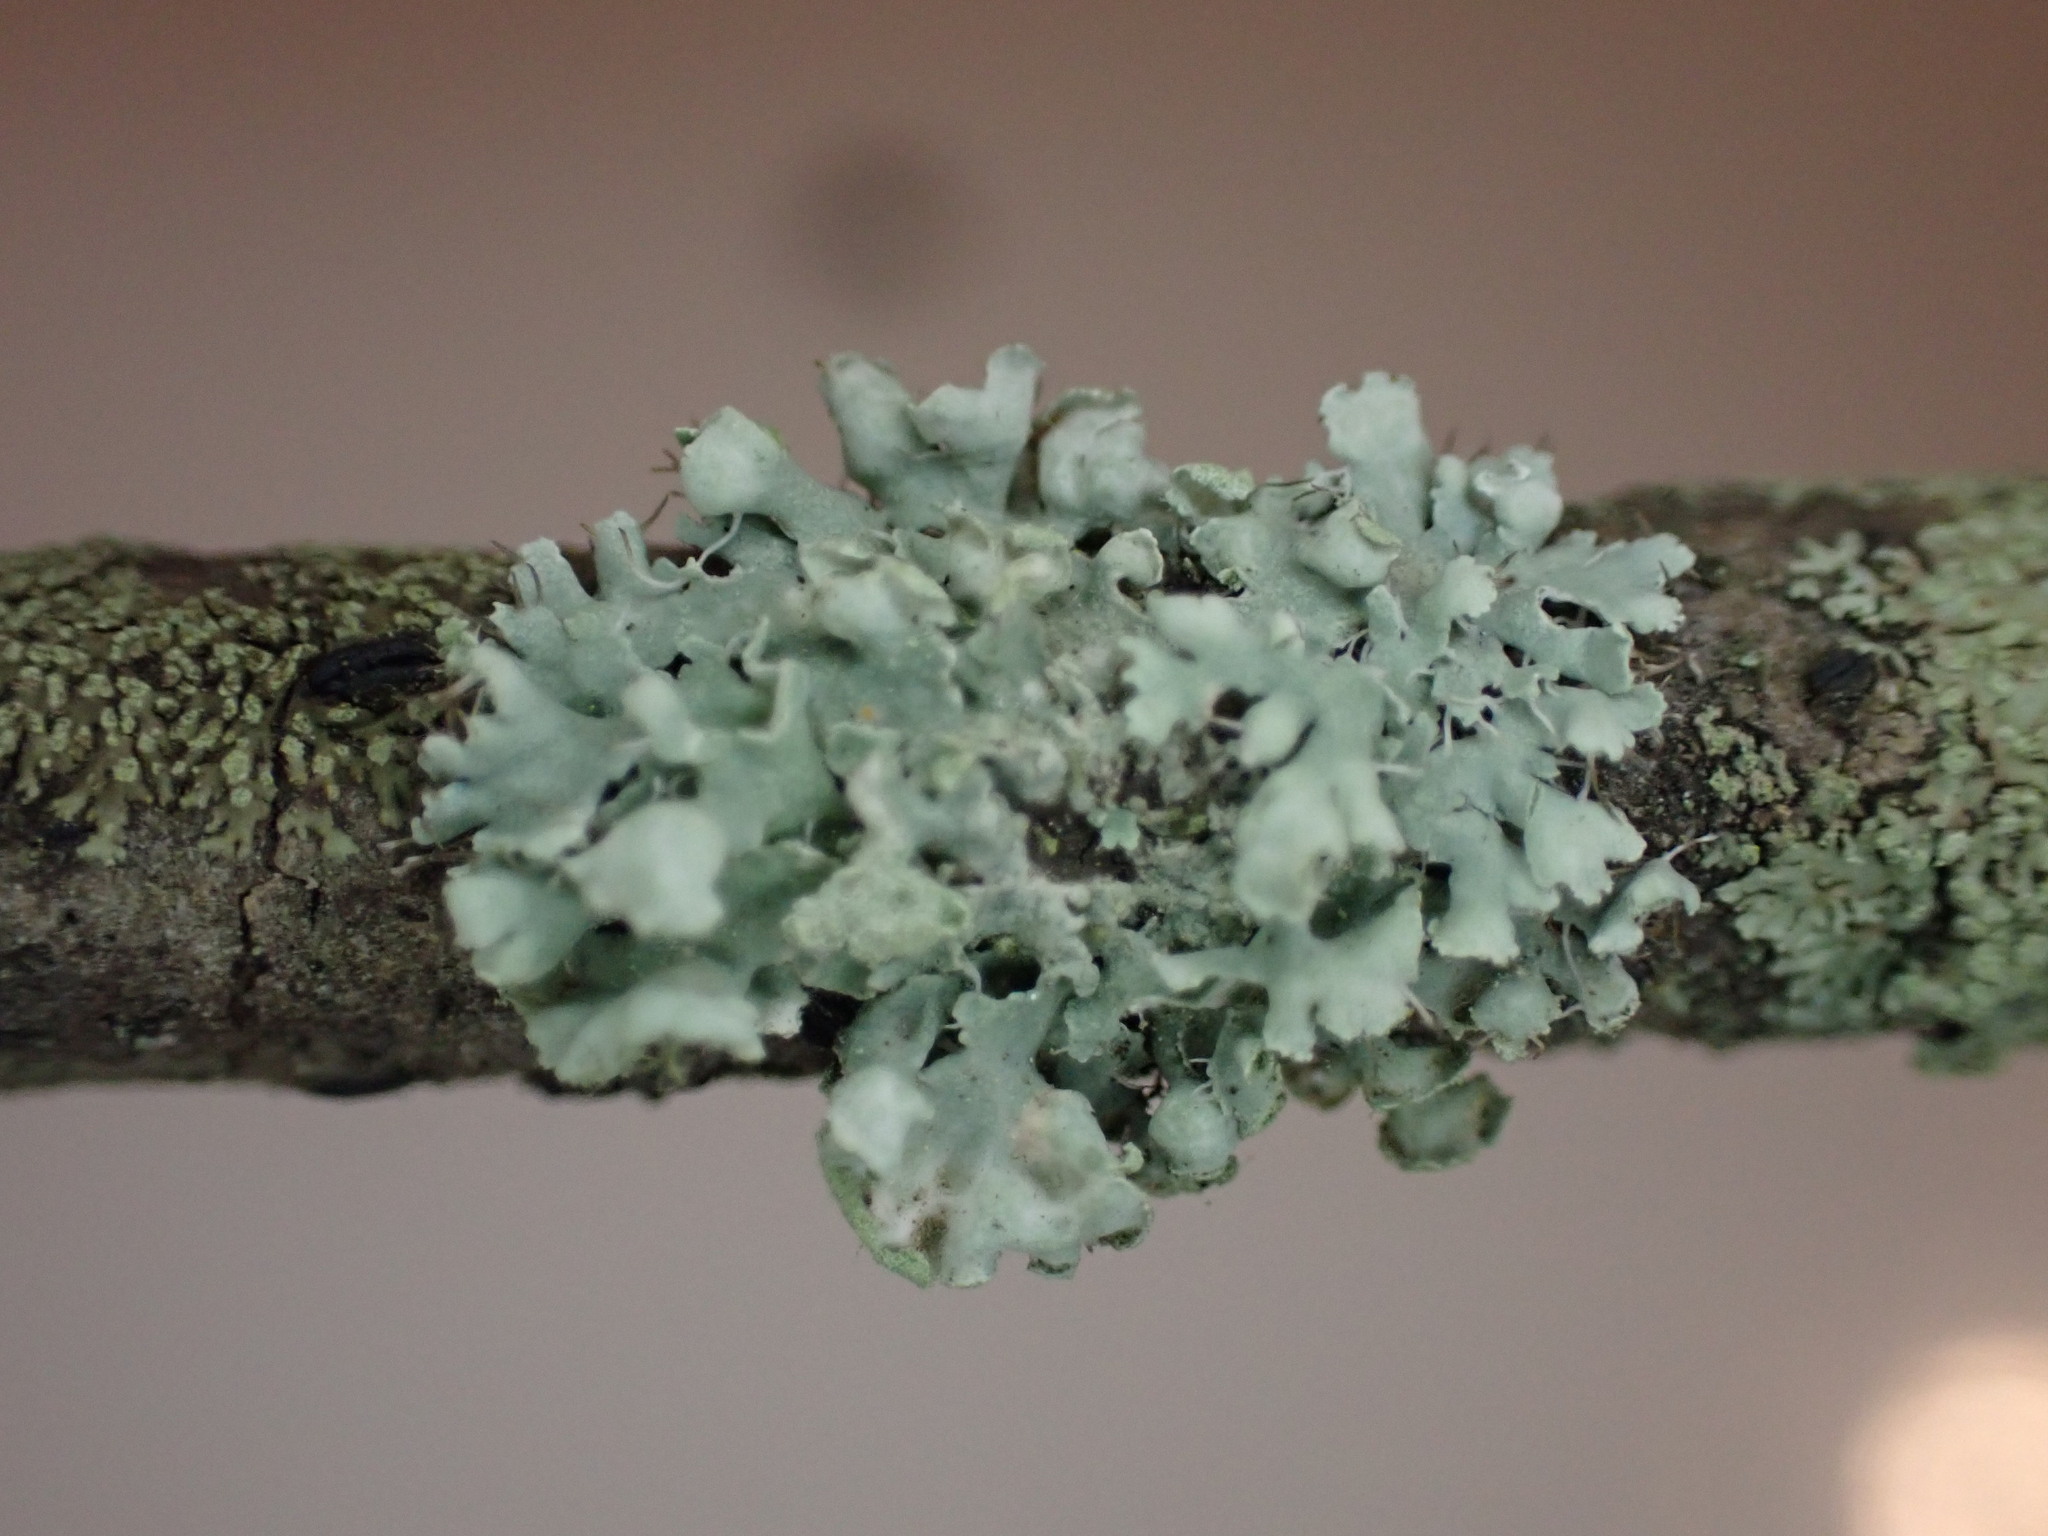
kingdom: Fungi
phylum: Ascomycota
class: Lecanoromycetes
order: Caliciales
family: Physciaceae
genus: Physcia
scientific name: Physcia adscendens
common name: Hooded rosette lichen
